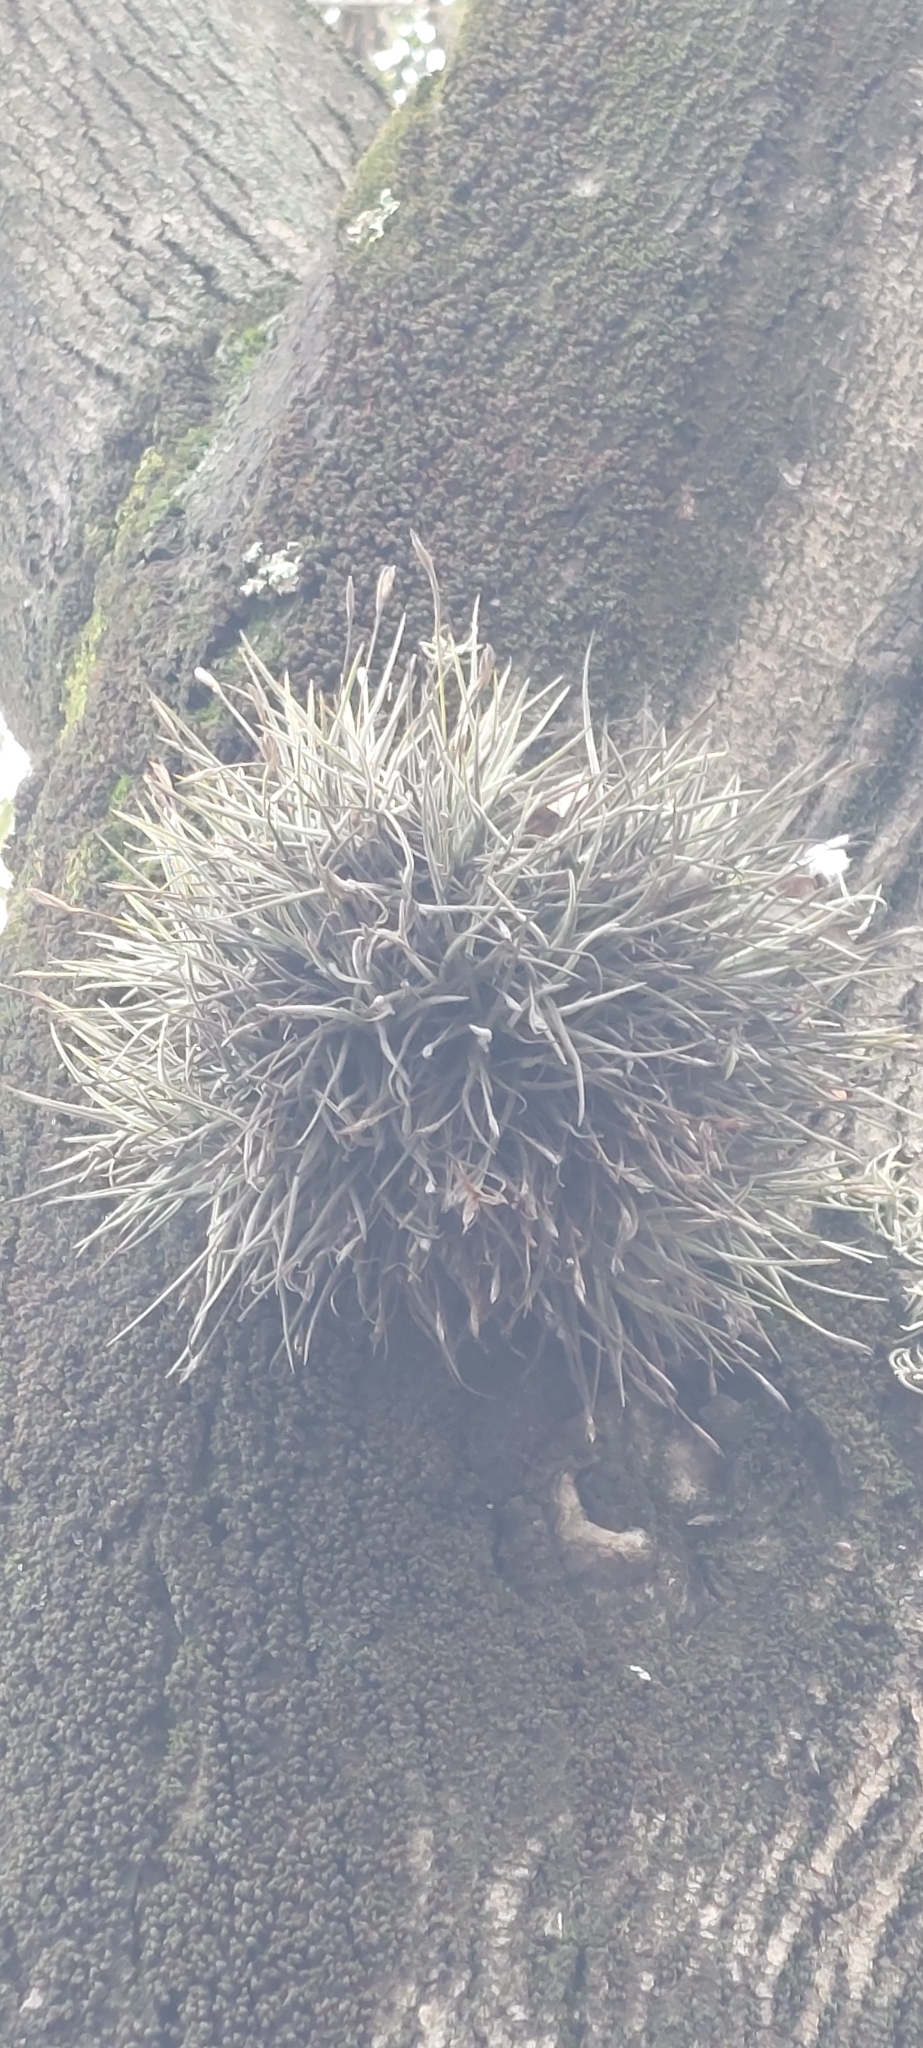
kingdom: Plantae
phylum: Tracheophyta
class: Liliopsida
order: Poales
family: Bromeliaceae
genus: Tillandsia
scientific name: Tillandsia recurvata
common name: Small ballmoss
